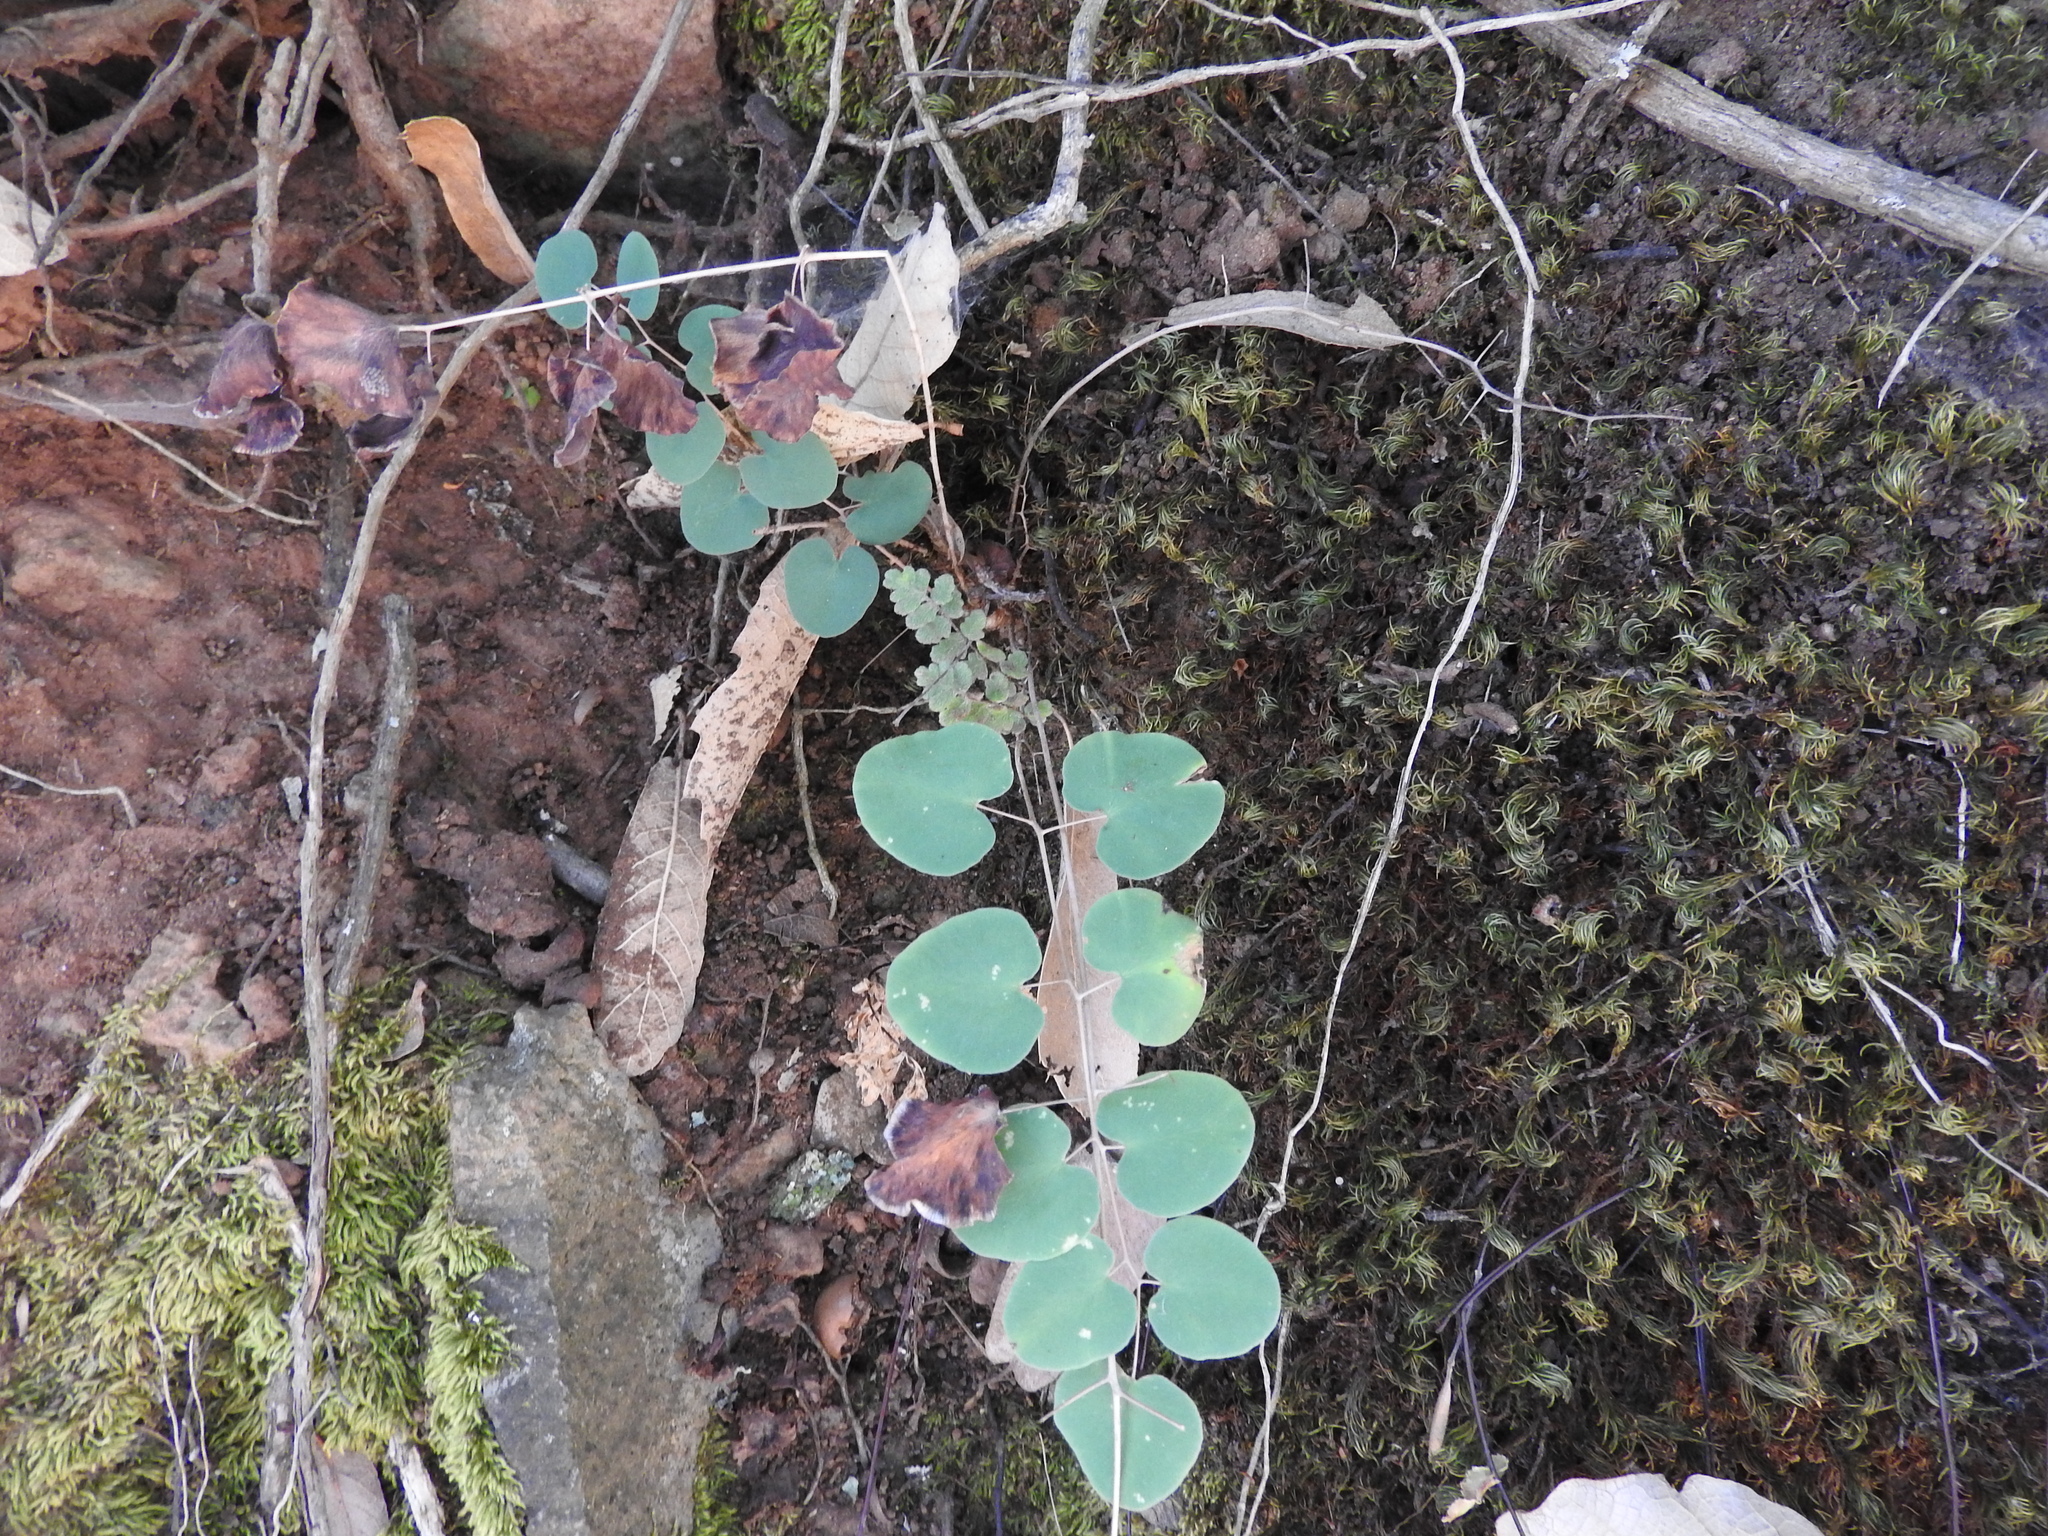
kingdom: Plantae
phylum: Tracheophyta
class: Polypodiopsida
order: Polypodiales
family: Pteridaceae
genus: Pellaea
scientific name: Pellaea cordifolia
